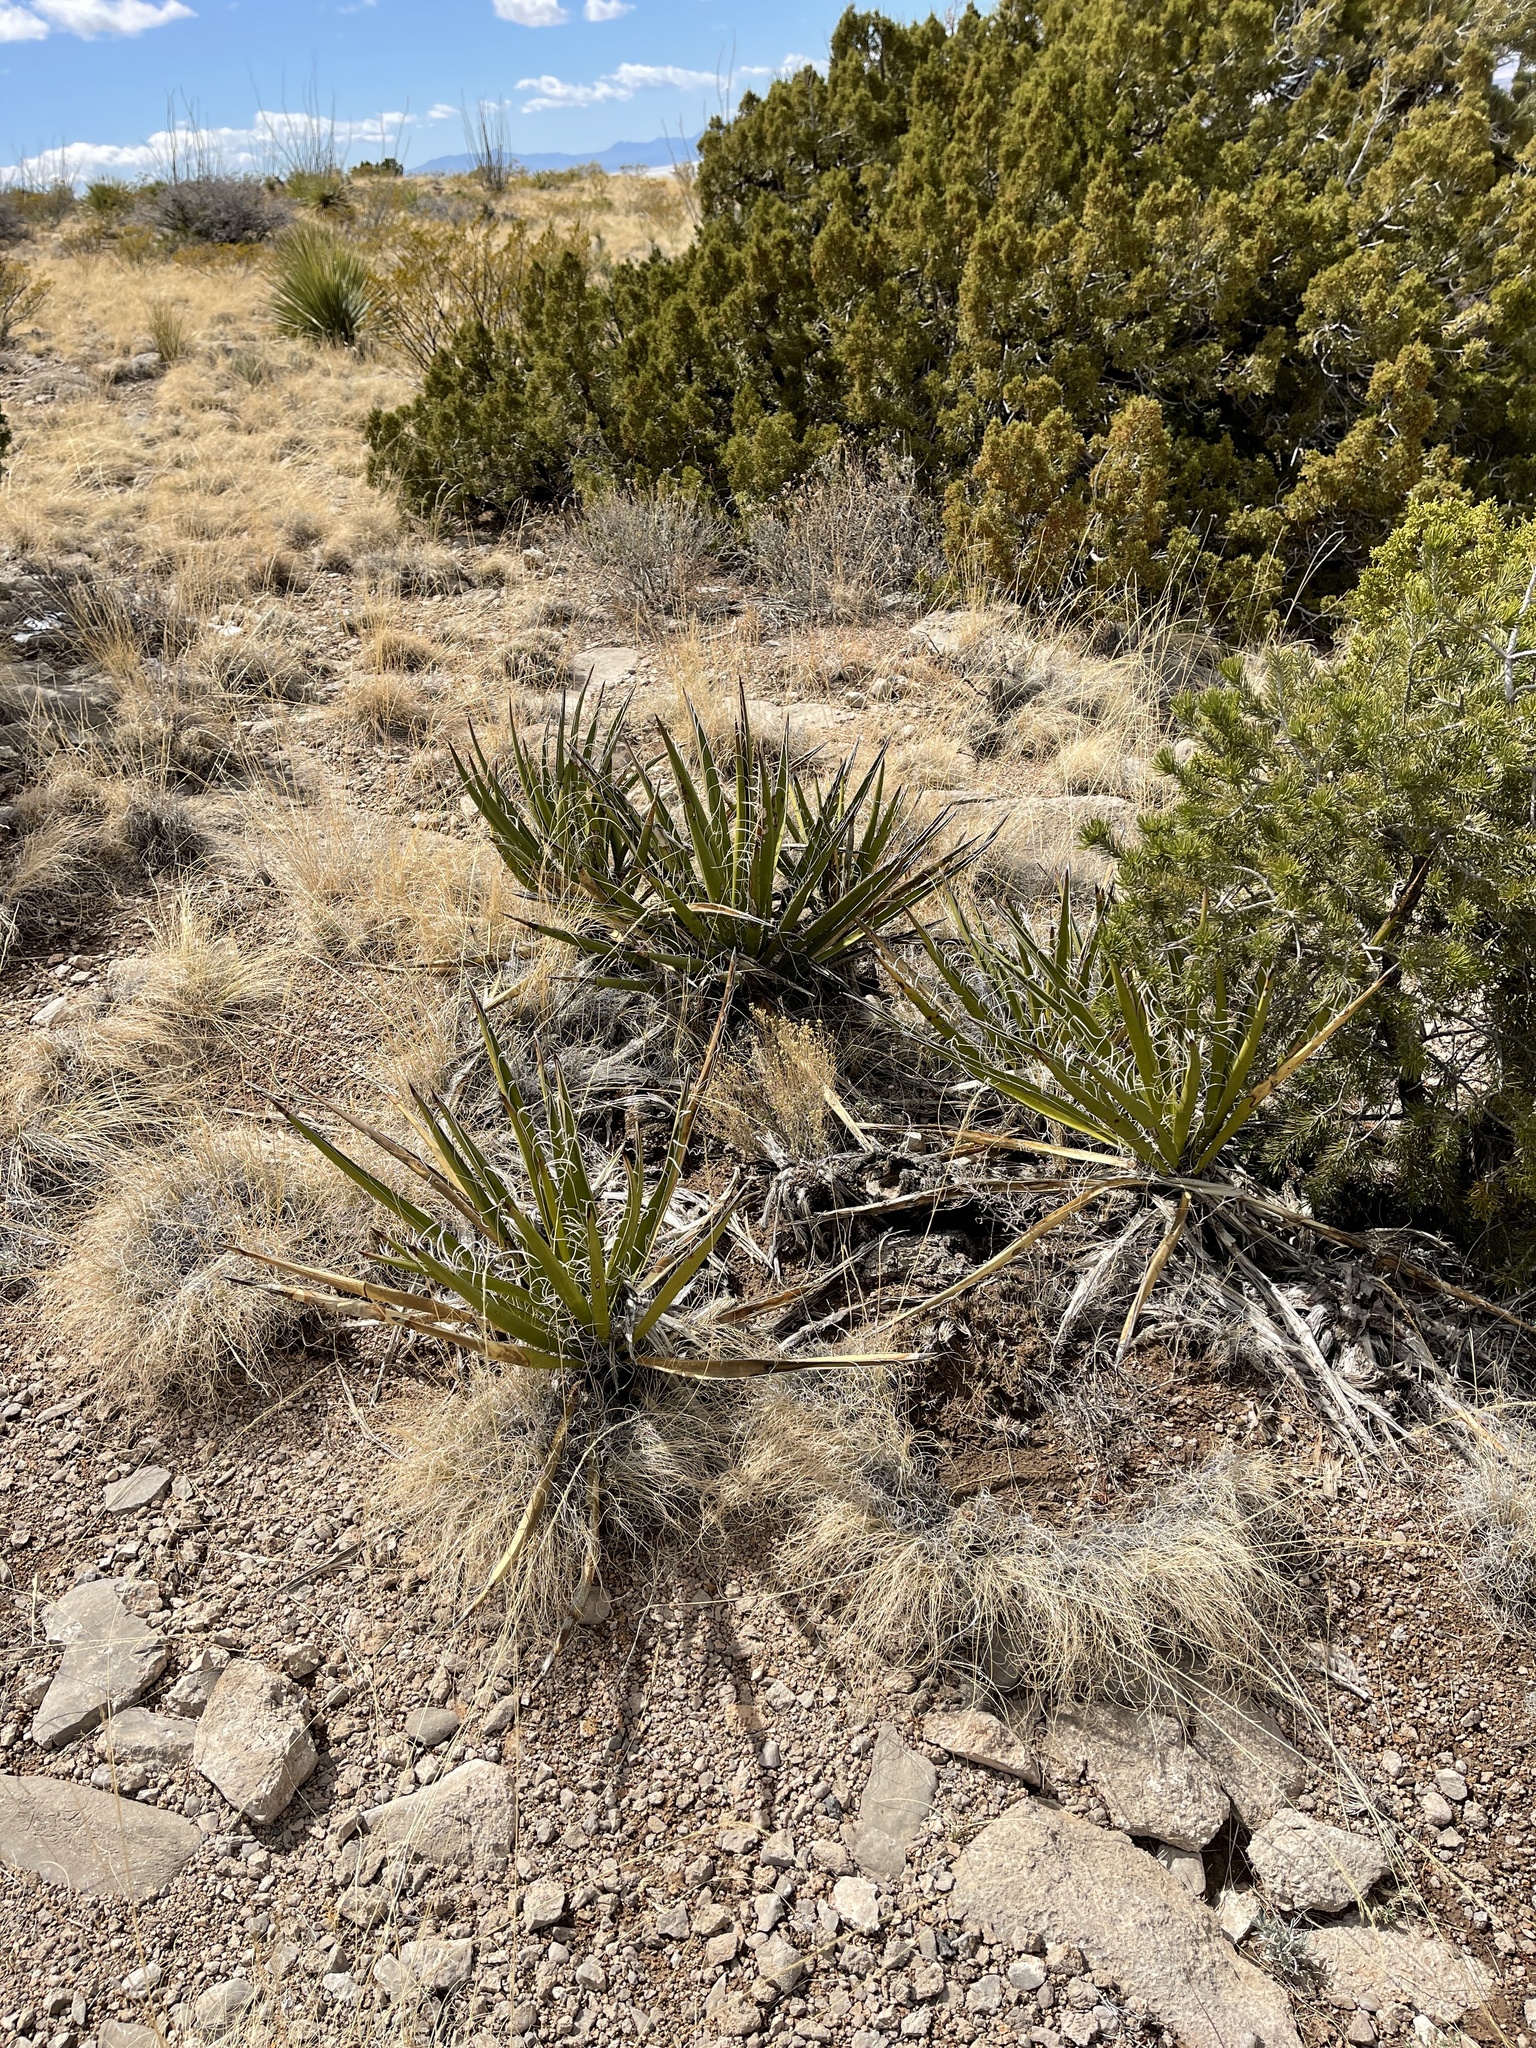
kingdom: Plantae
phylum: Tracheophyta
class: Liliopsida
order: Asparagales
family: Asparagaceae
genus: Yucca
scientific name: Yucca baccata
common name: Banana yucca
